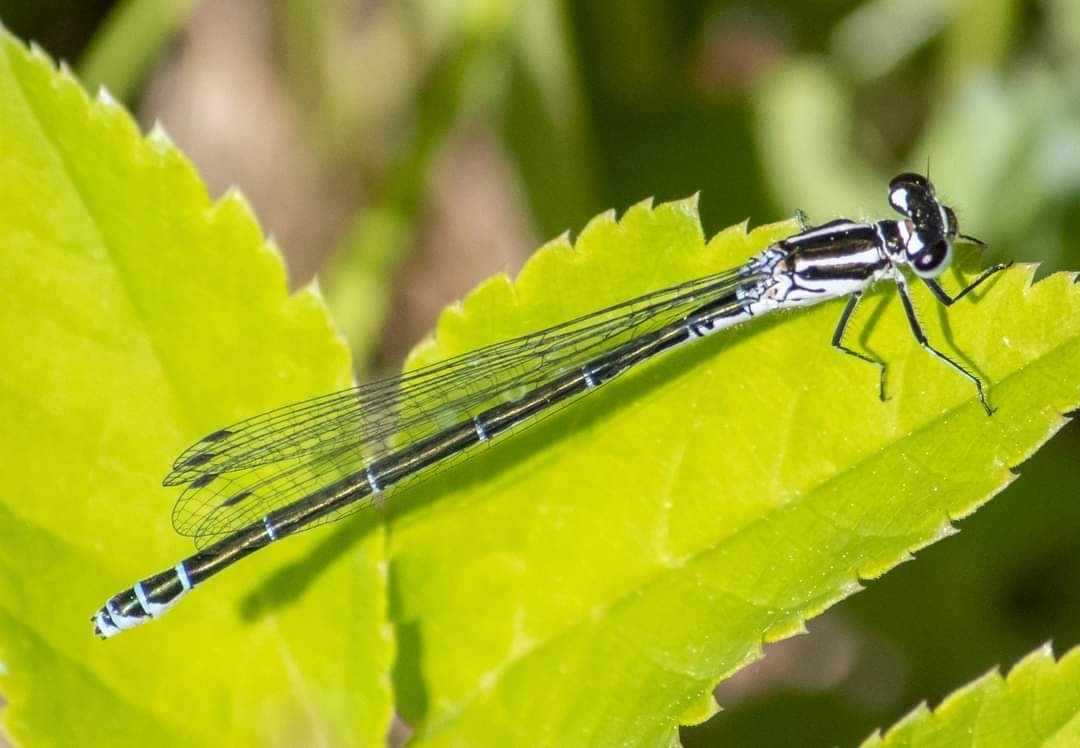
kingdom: Animalia
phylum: Arthropoda
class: Insecta
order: Odonata
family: Coenagrionidae
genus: Coenagrion
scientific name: Coenagrion puella
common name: Azure damselfly
